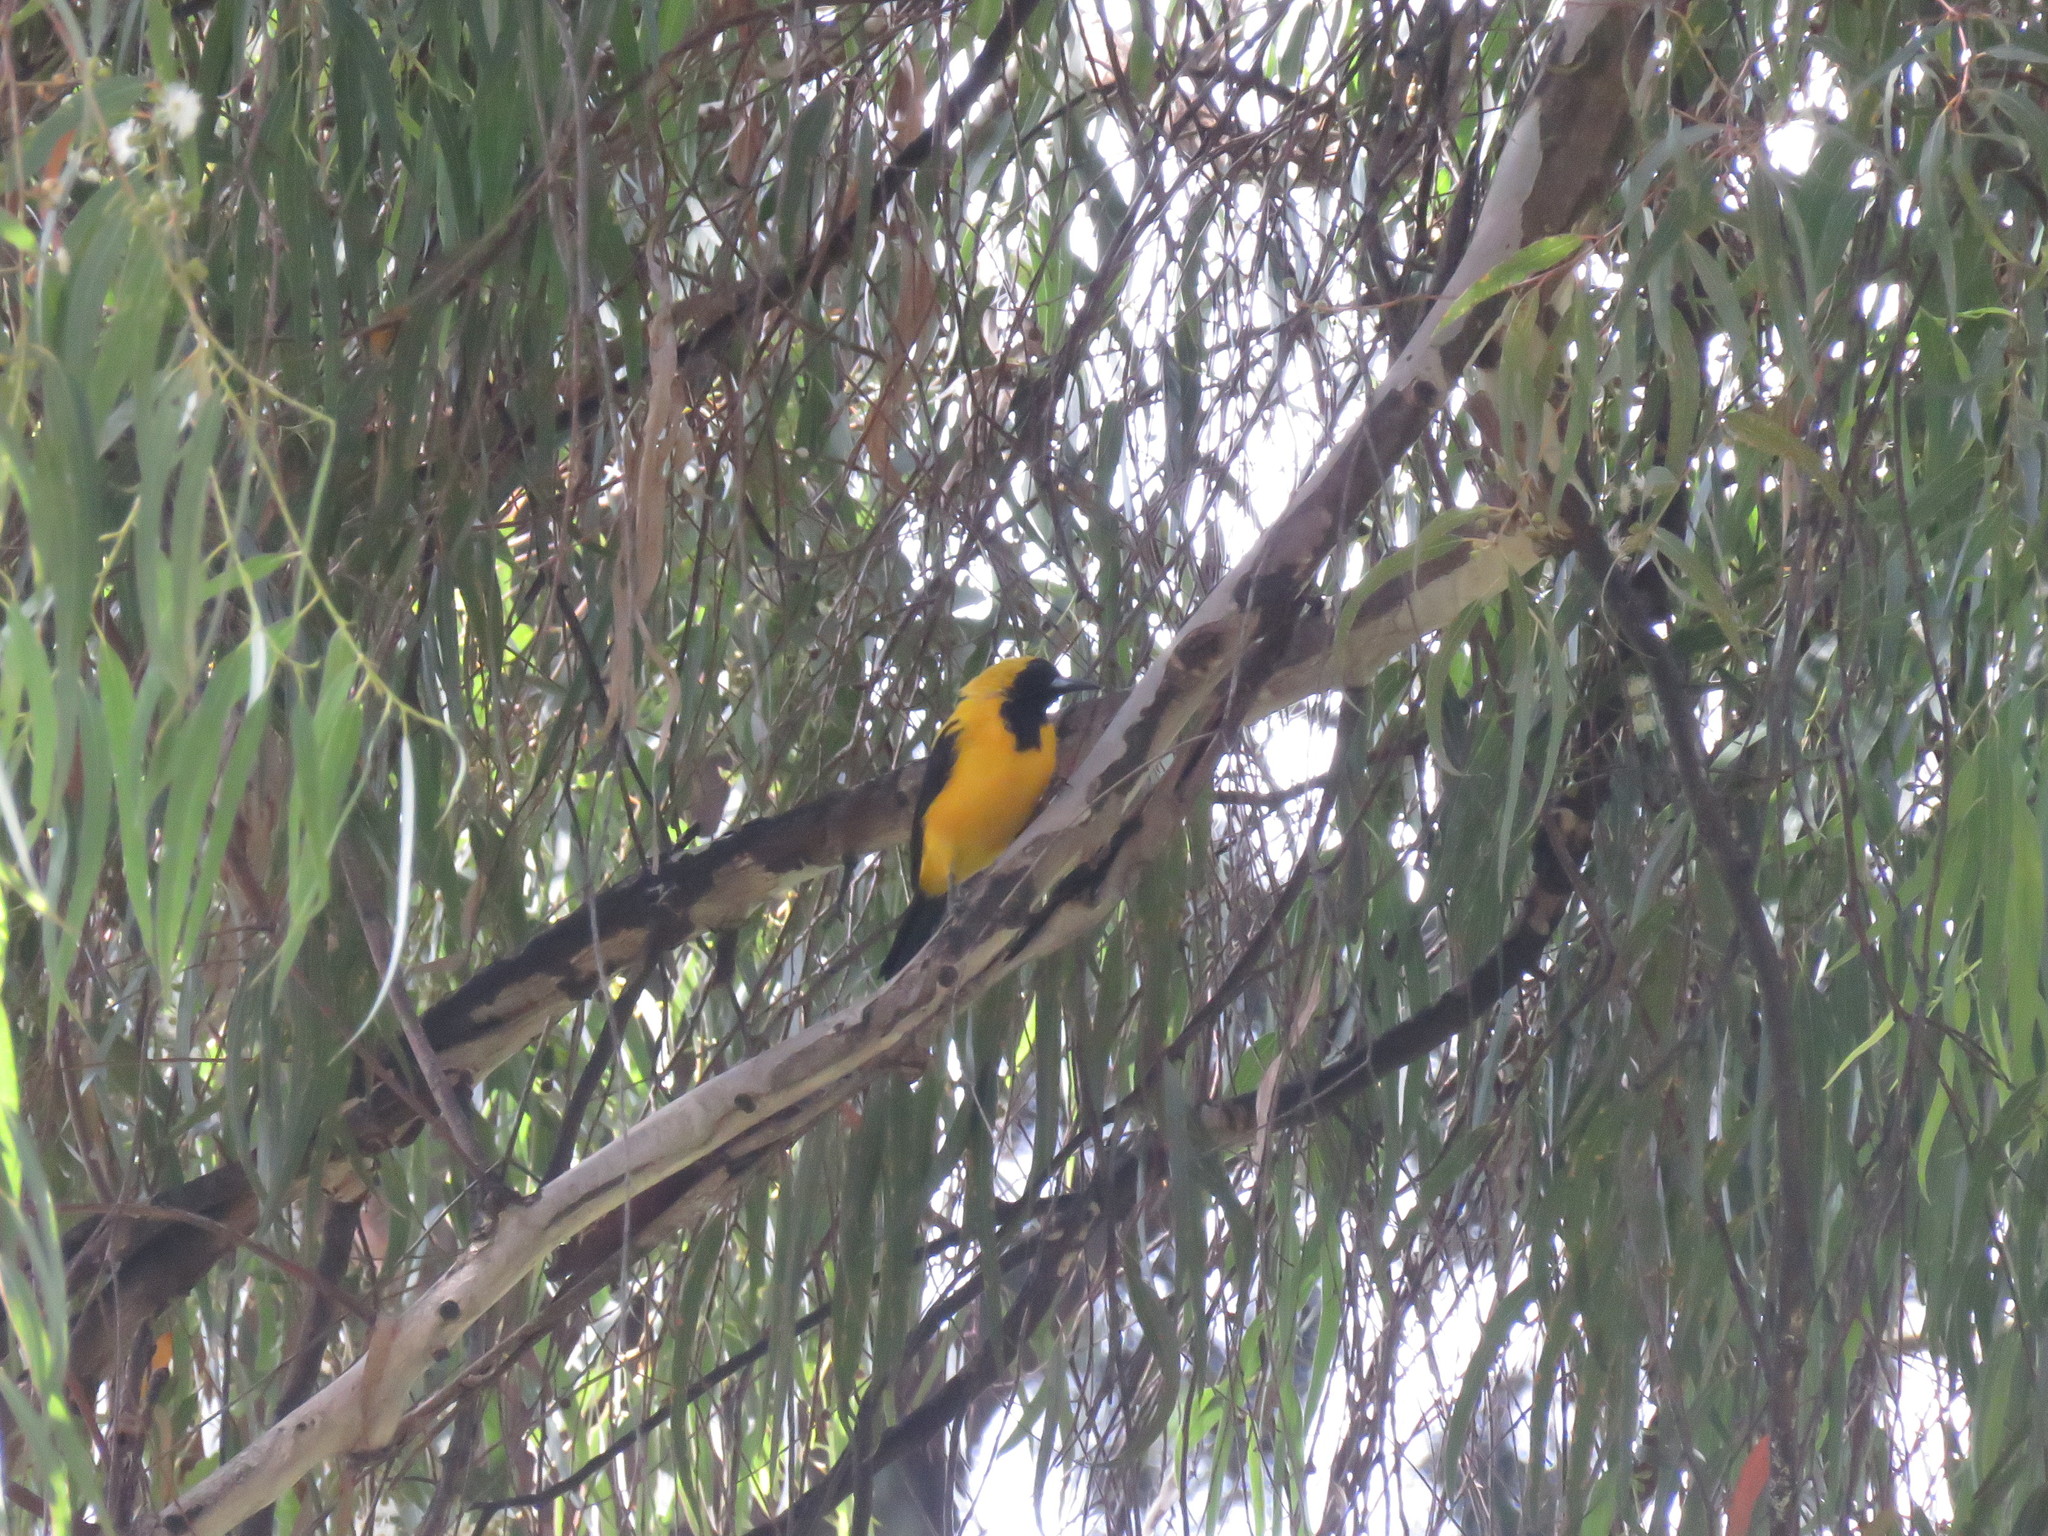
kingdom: Animalia
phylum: Chordata
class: Aves
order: Passeriformes
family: Icteridae
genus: Icterus
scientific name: Icterus chrysater
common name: Yellow-backed oriole
